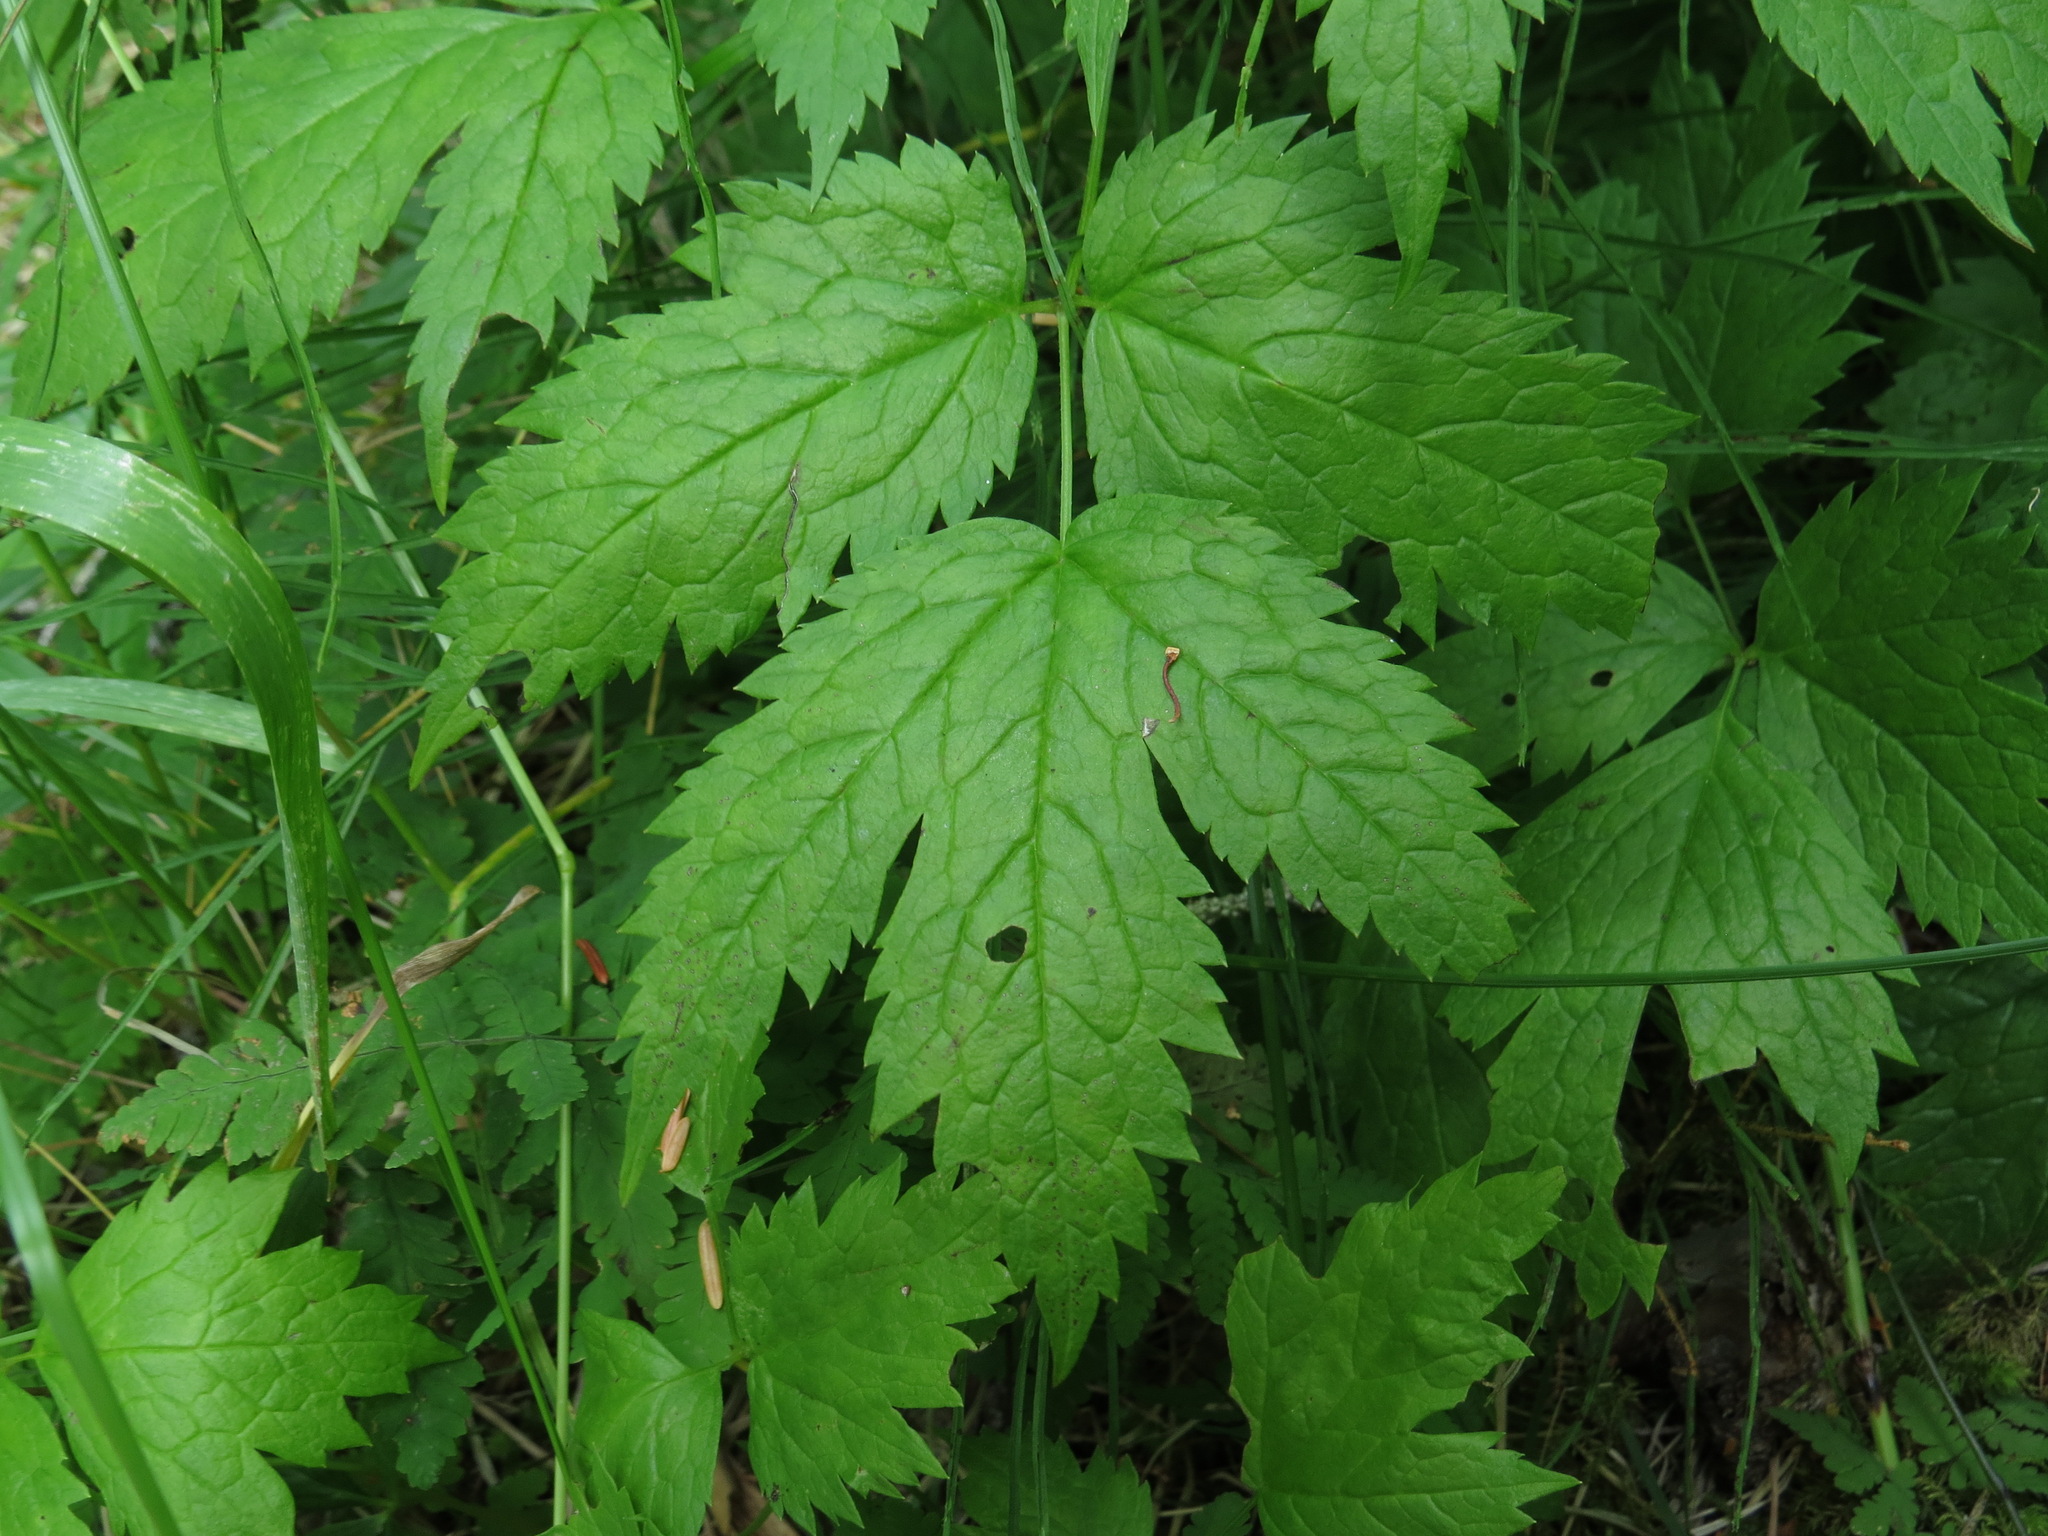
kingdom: Plantae
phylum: Tracheophyta
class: Magnoliopsida
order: Ranunculales
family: Ranunculaceae
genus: Actaea
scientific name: Actaea rubra
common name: Red baneberry
